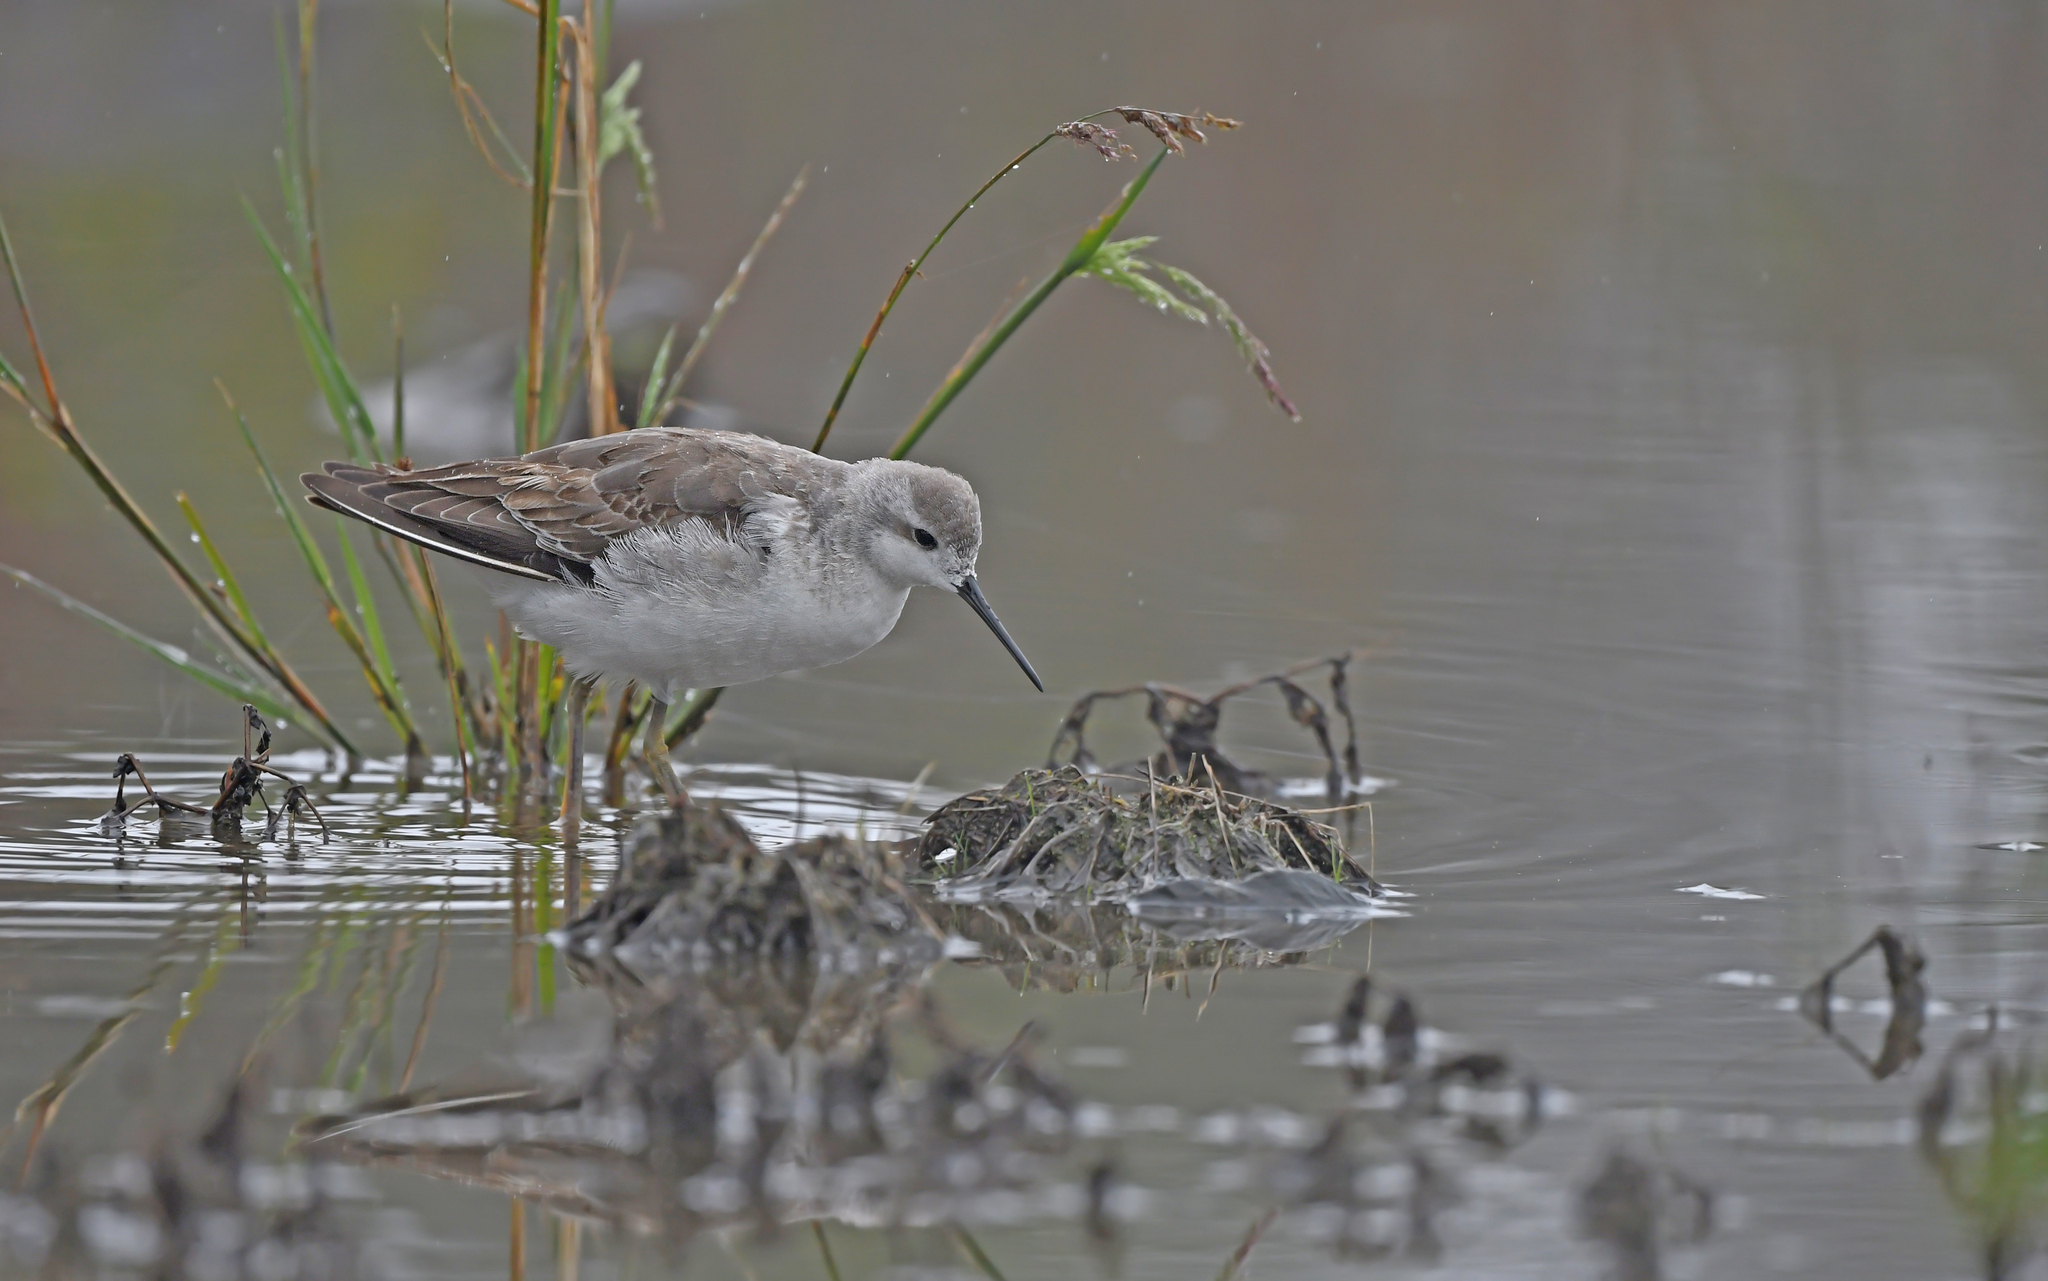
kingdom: Animalia
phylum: Chordata
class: Aves
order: Charadriiformes
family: Scolopacidae
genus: Phalaropus
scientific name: Phalaropus tricolor
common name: Wilson's phalarope
